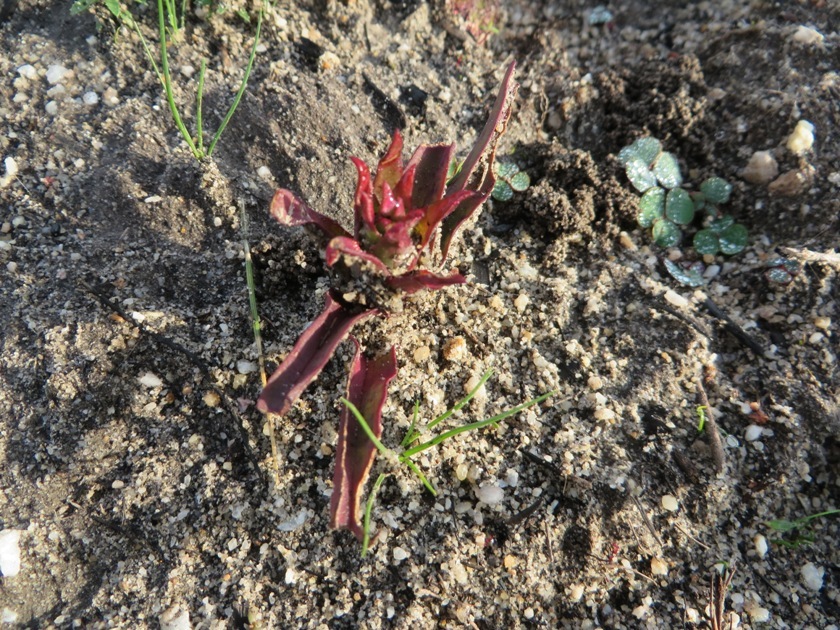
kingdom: Plantae
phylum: Tracheophyta
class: Liliopsida
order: Asparagales
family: Orchidaceae
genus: Disa
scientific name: Disa ophrydea
